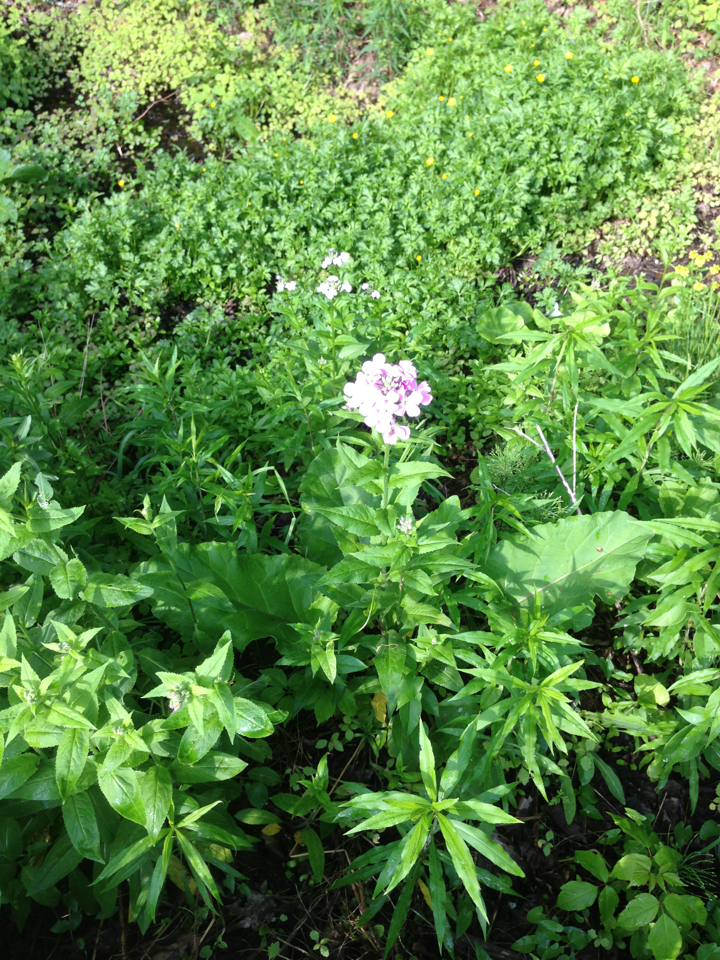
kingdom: Plantae
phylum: Tracheophyta
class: Magnoliopsida
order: Brassicales
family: Brassicaceae
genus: Hesperis
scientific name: Hesperis matronalis
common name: Dame's-violet
